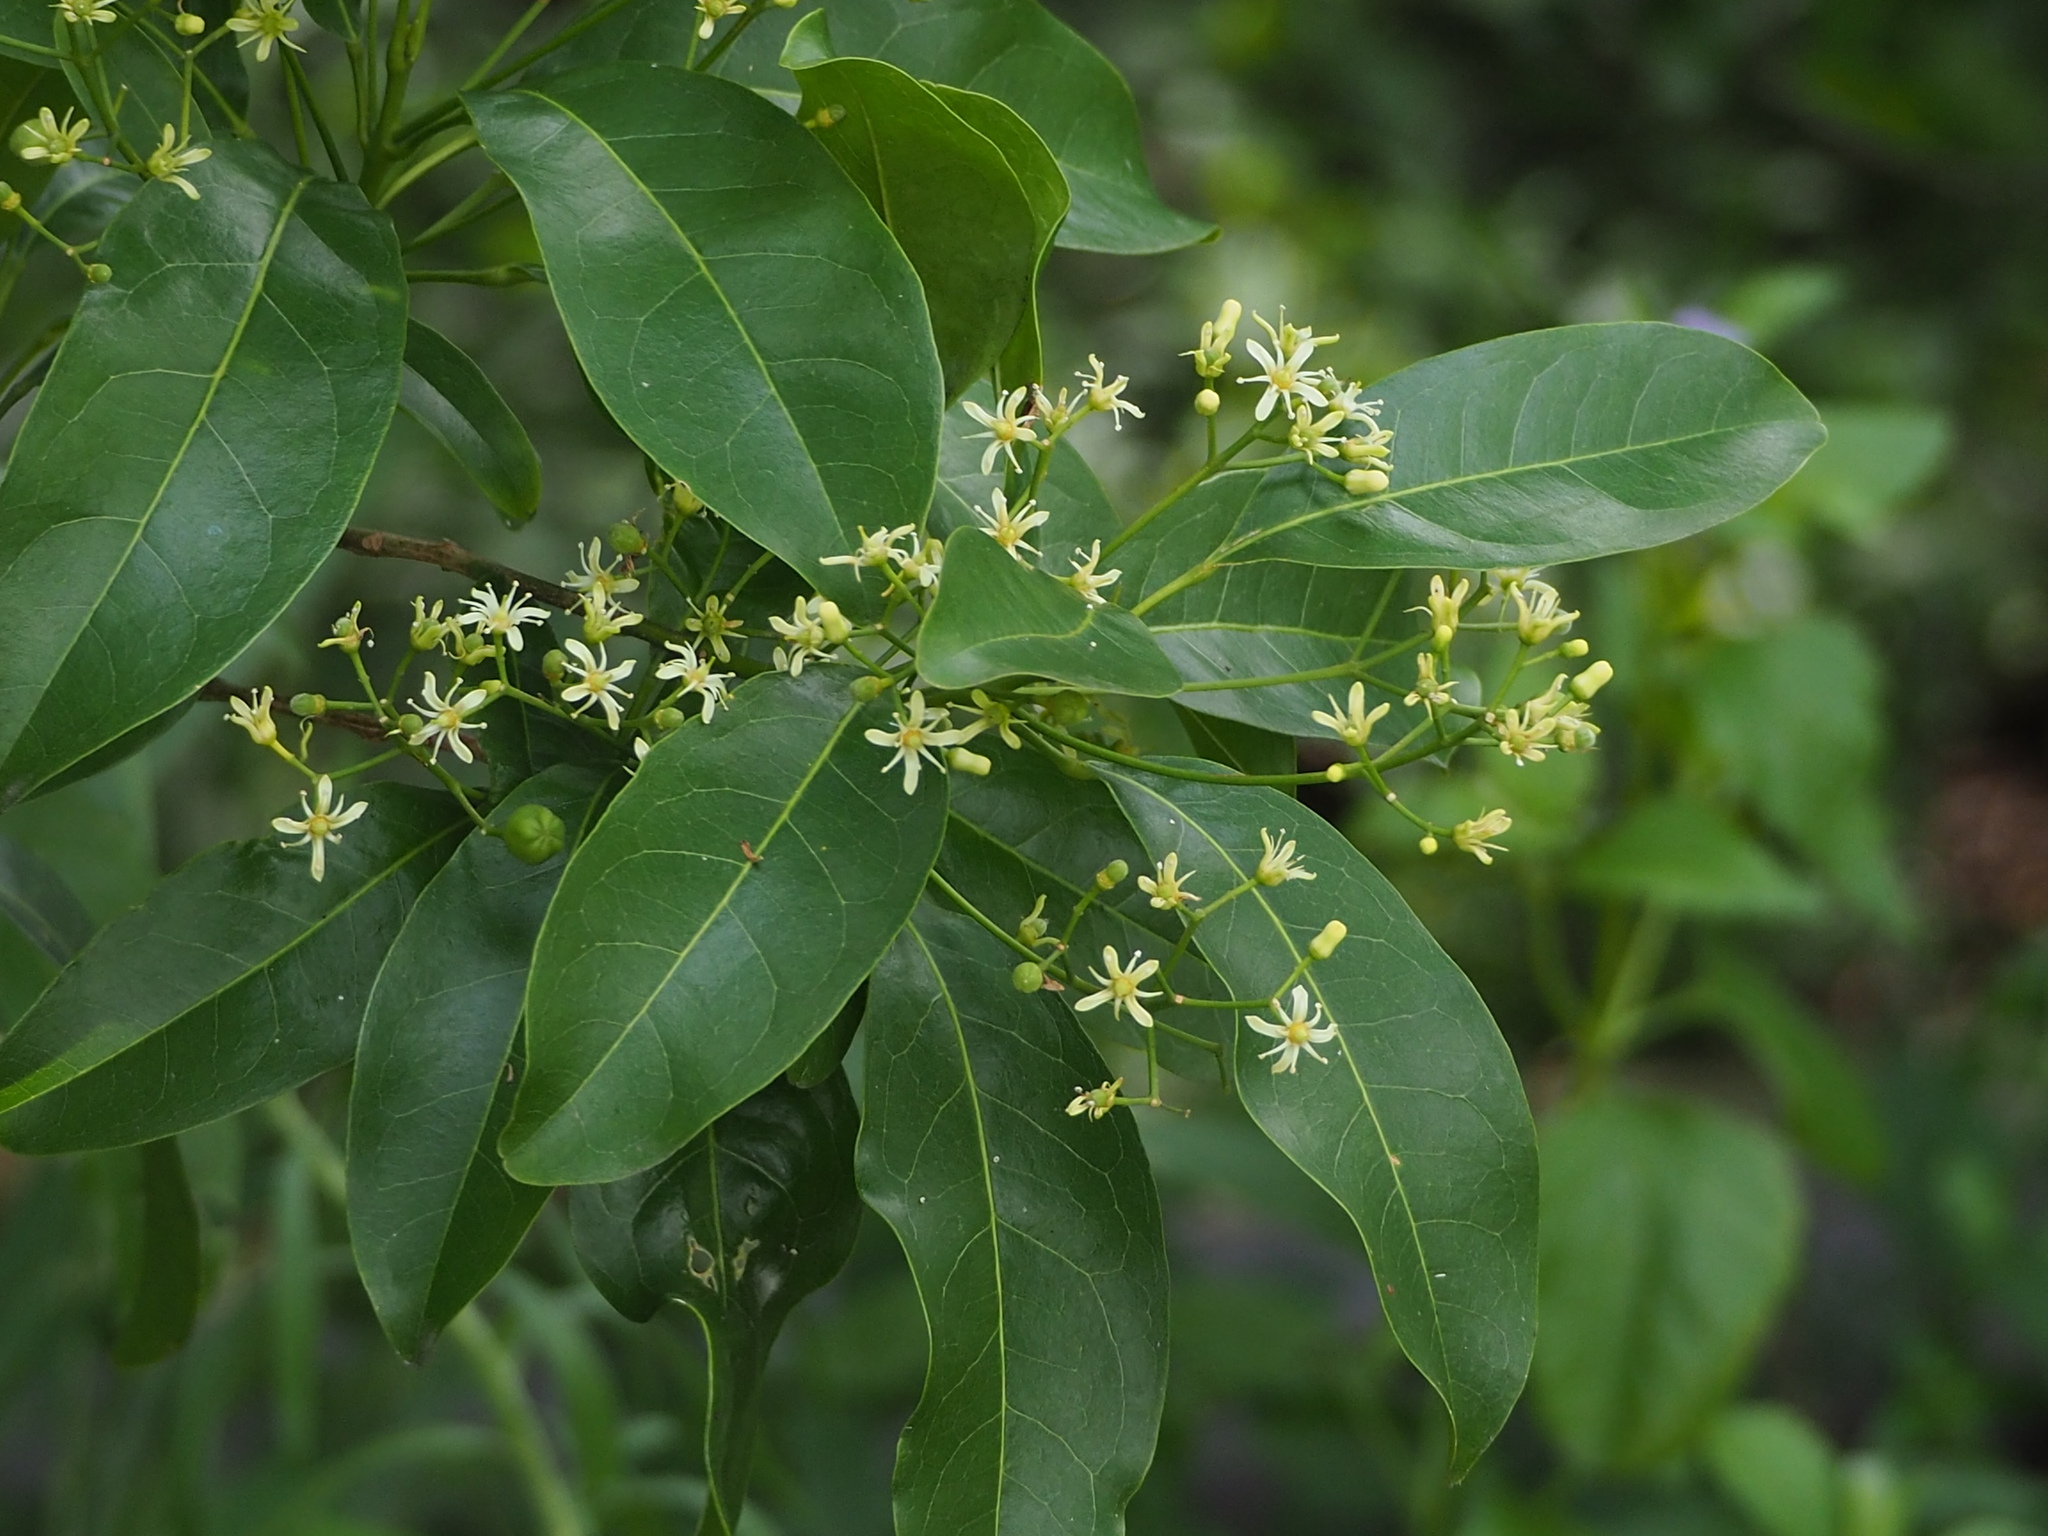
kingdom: Plantae
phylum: Tracheophyta
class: Magnoliopsida
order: Sapindales
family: Rutaceae
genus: Acronychia
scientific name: Acronychia pedunculata
